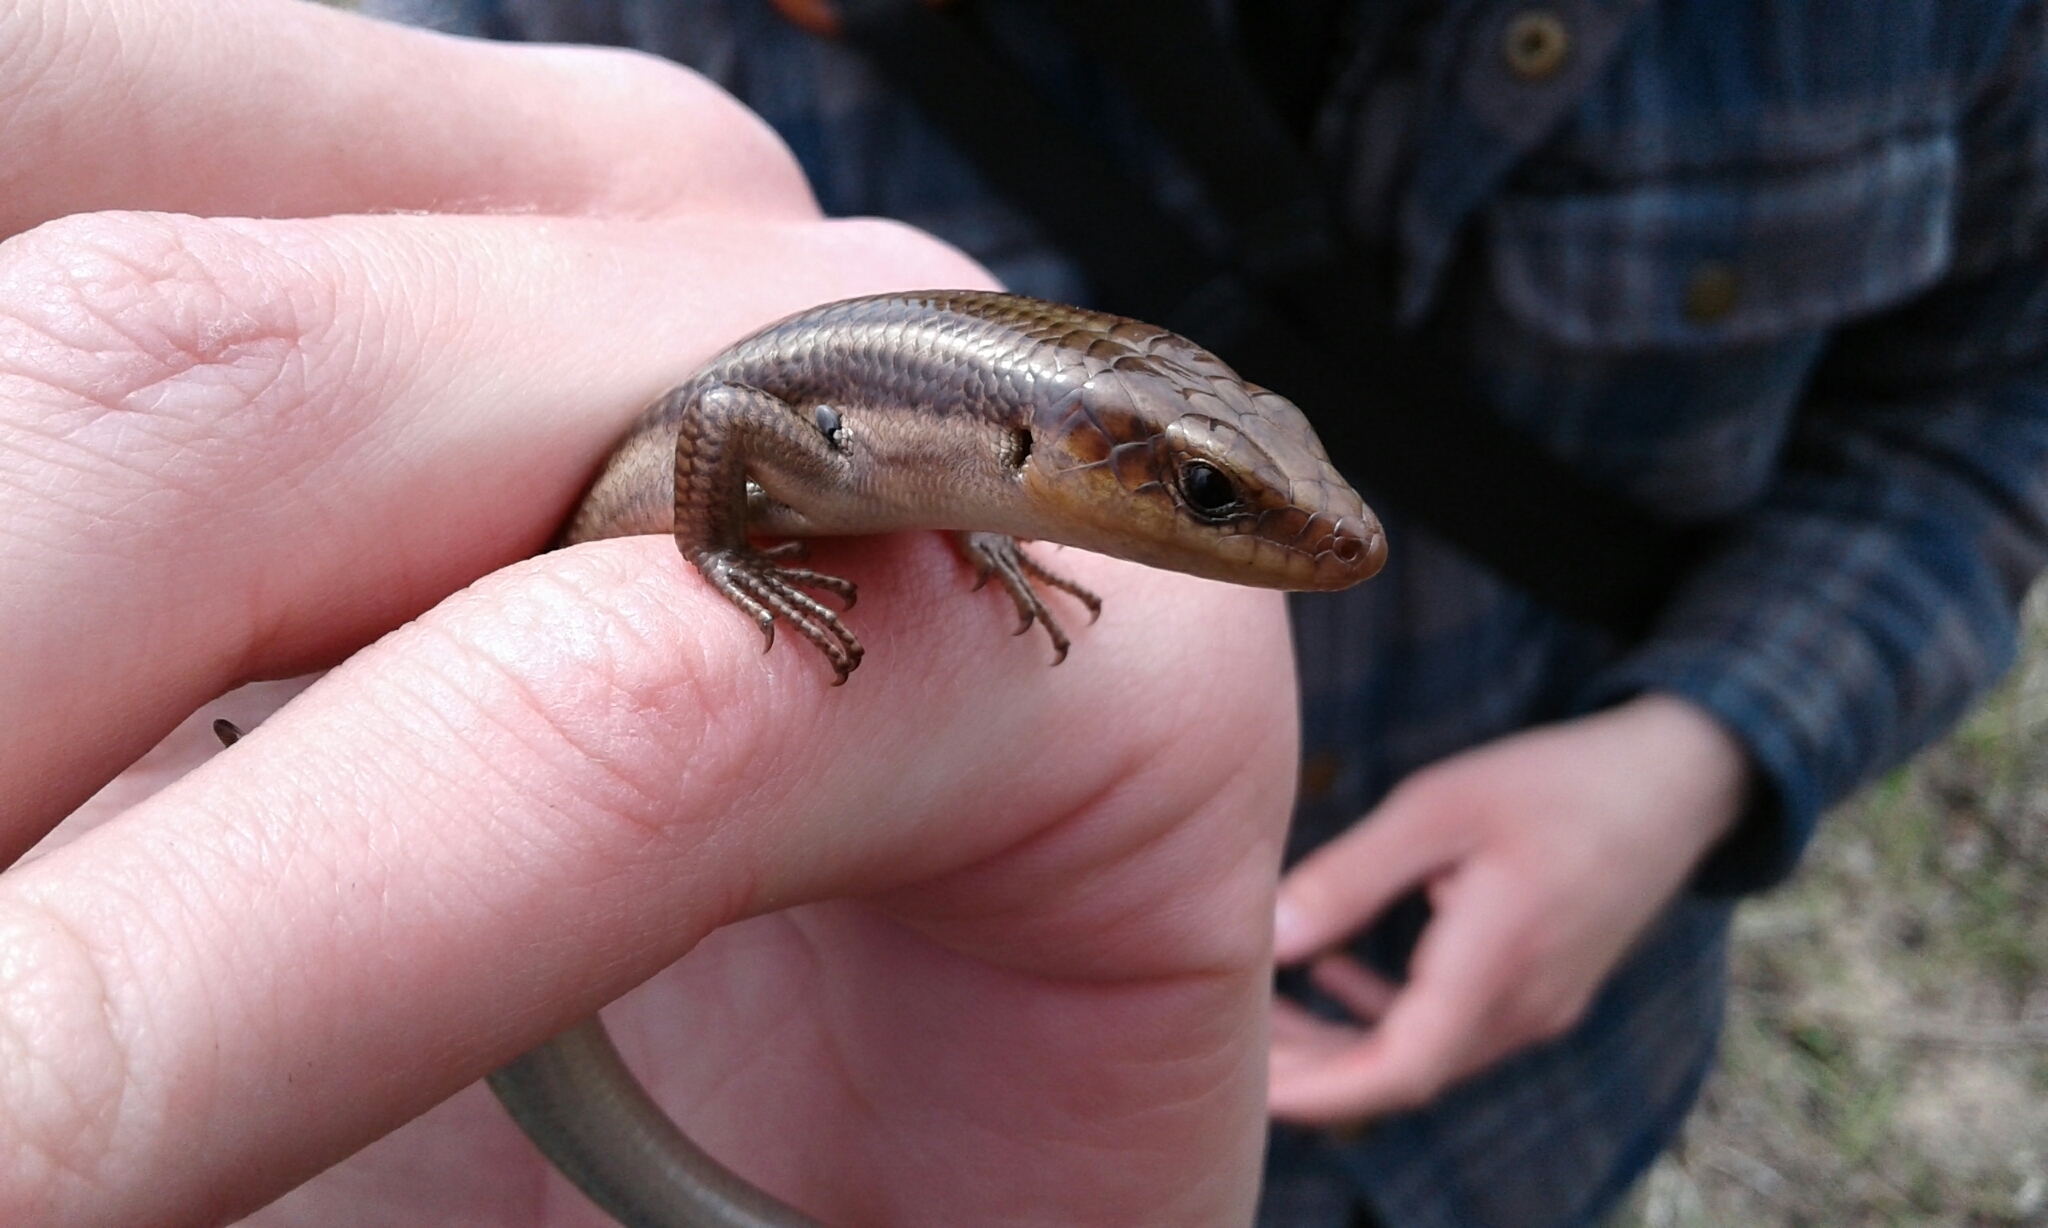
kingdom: Animalia
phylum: Chordata
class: Squamata
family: Scincidae
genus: Plestiodon
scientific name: Plestiodon fasciatus
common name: Five-lined skink
